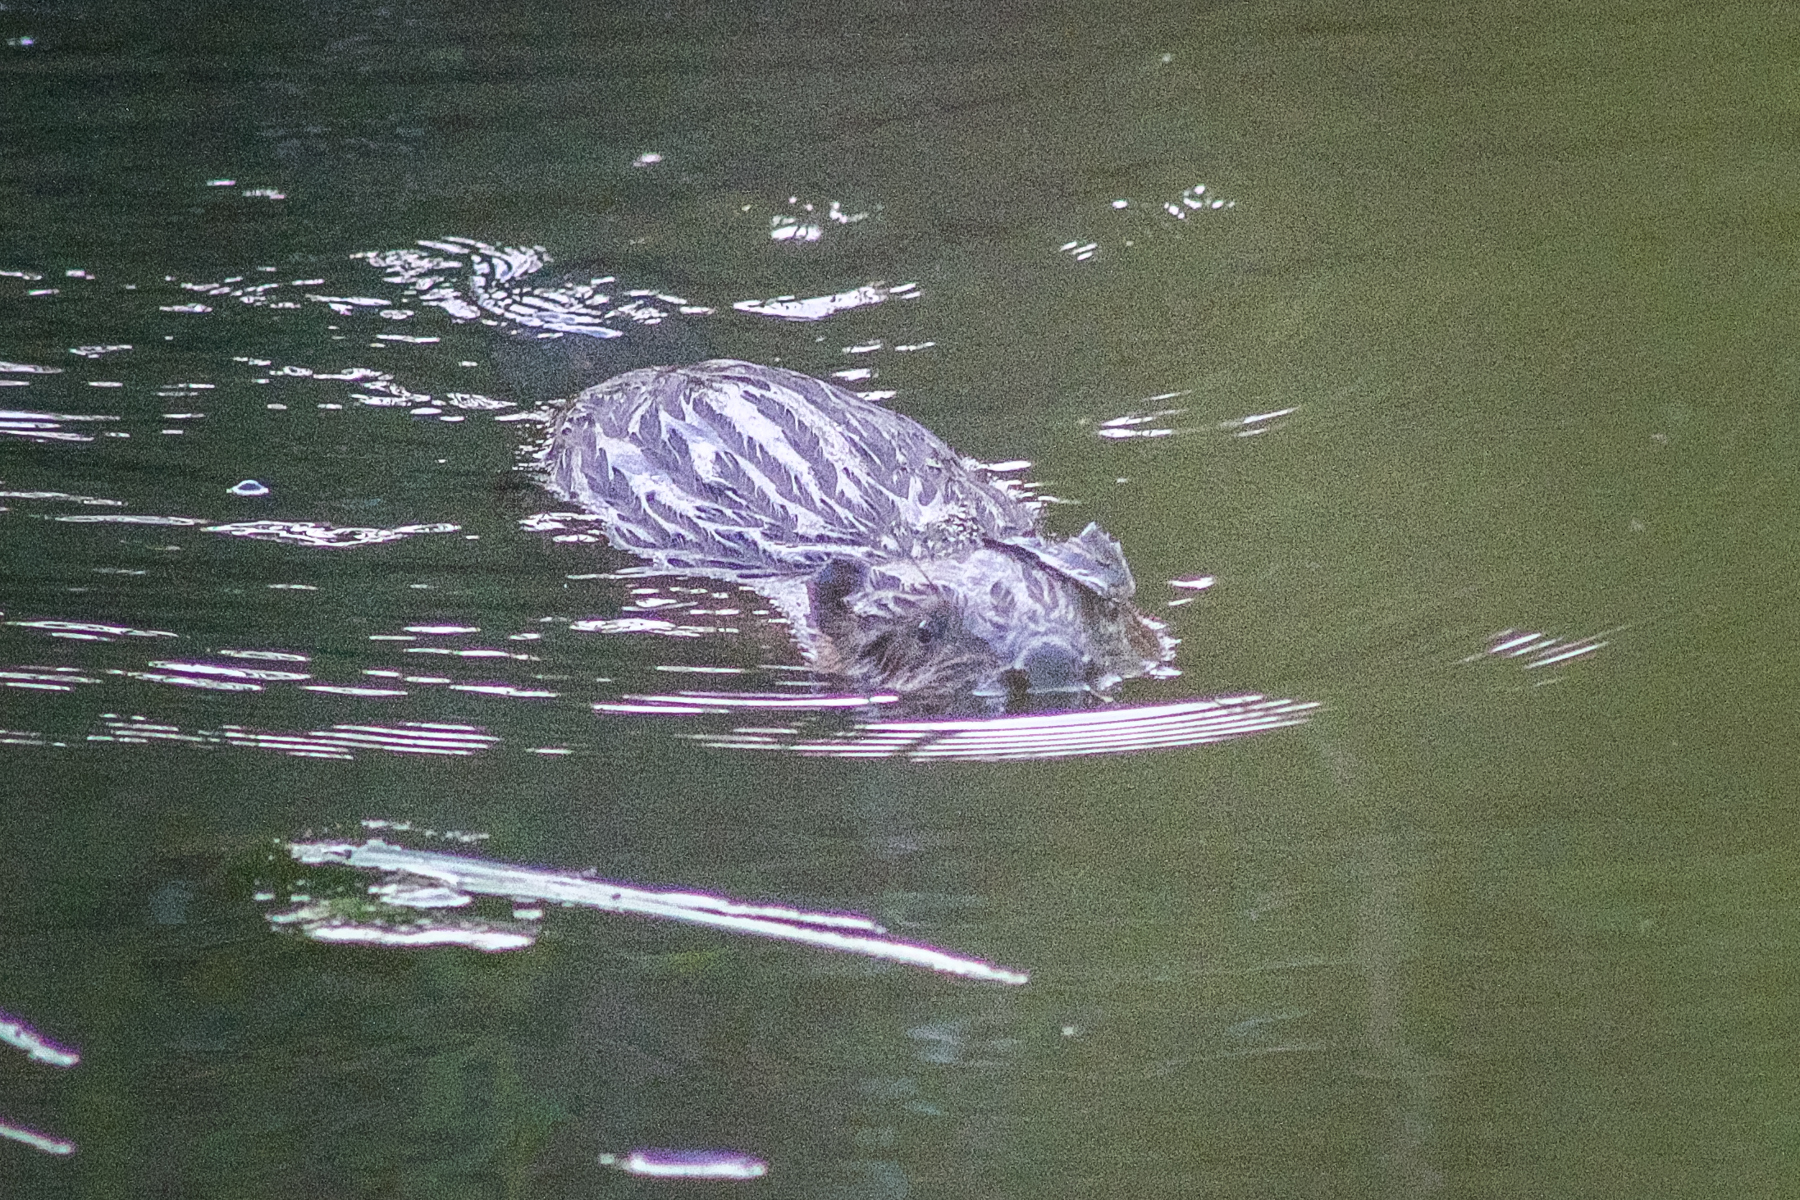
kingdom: Animalia
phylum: Chordata
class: Mammalia
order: Rodentia
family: Castoridae
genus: Castor
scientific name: Castor fiber
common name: Eurasian beaver
